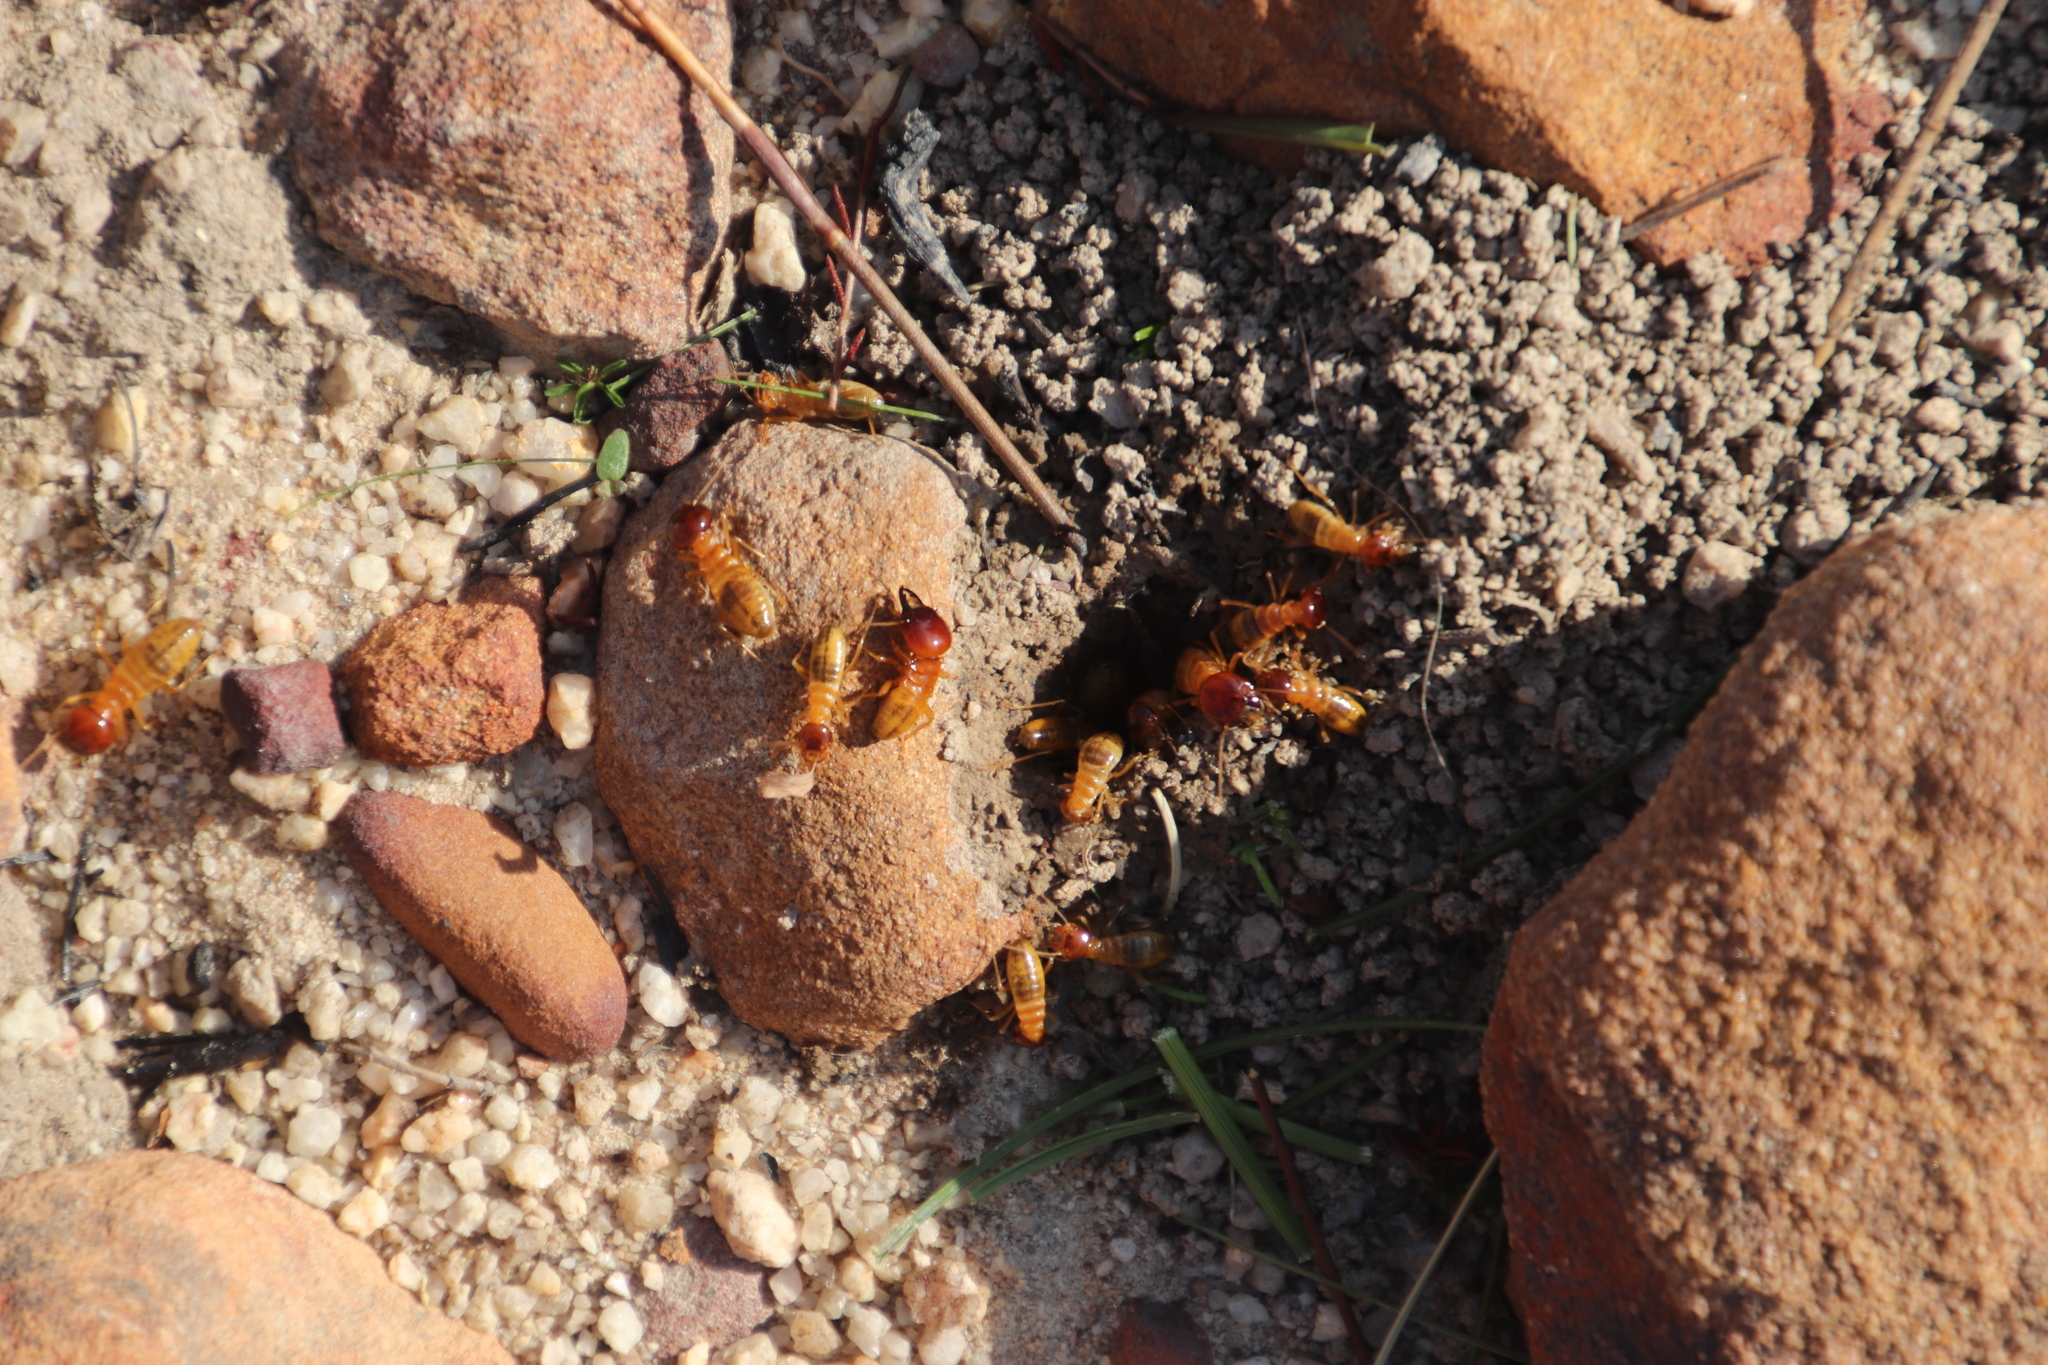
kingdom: Animalia
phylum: Arthropoda
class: Insecta
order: Blattodea
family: Hodotermitidae
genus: Microhodotermes
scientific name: Microhodotermes viator
